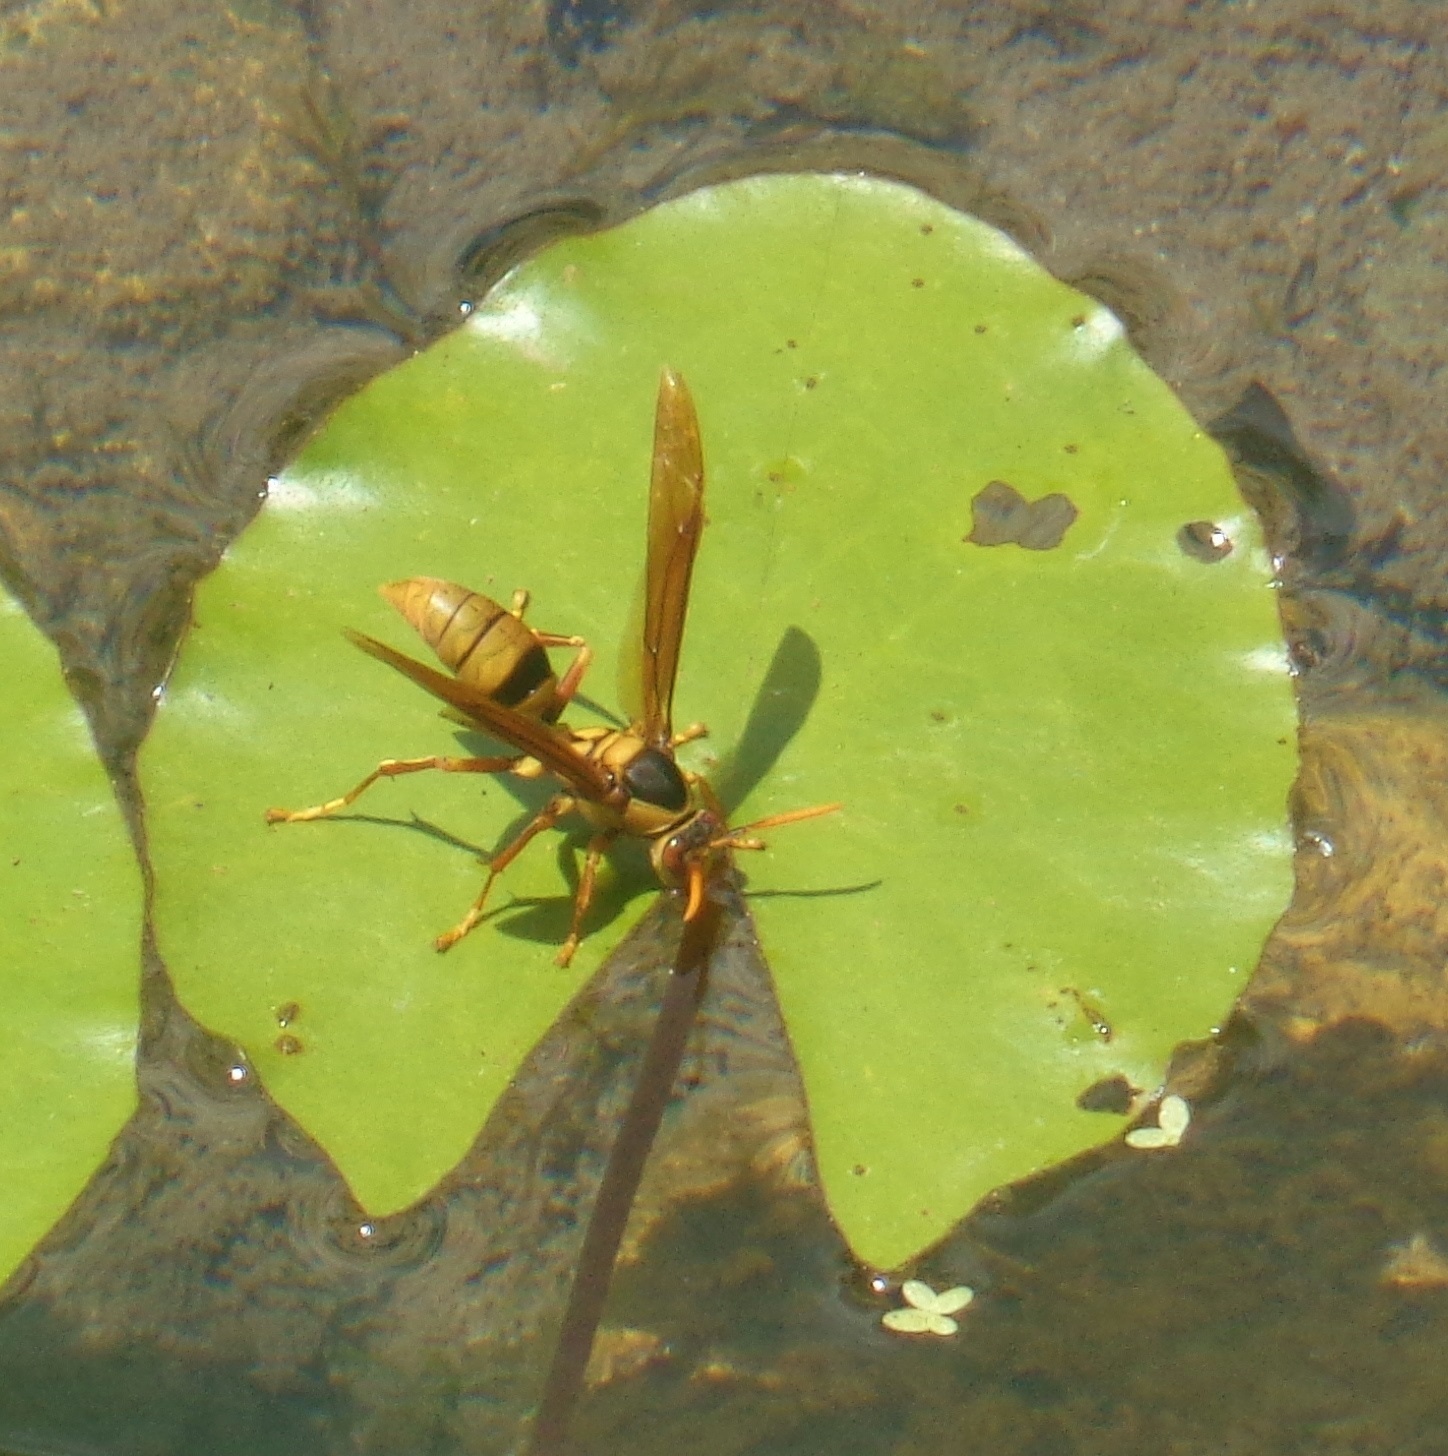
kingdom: Animalia
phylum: Arthropoda
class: Insecta
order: Hymenoptera
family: Eumenidae
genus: Polistes
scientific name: Polistes carnifex
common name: Paper wasp
